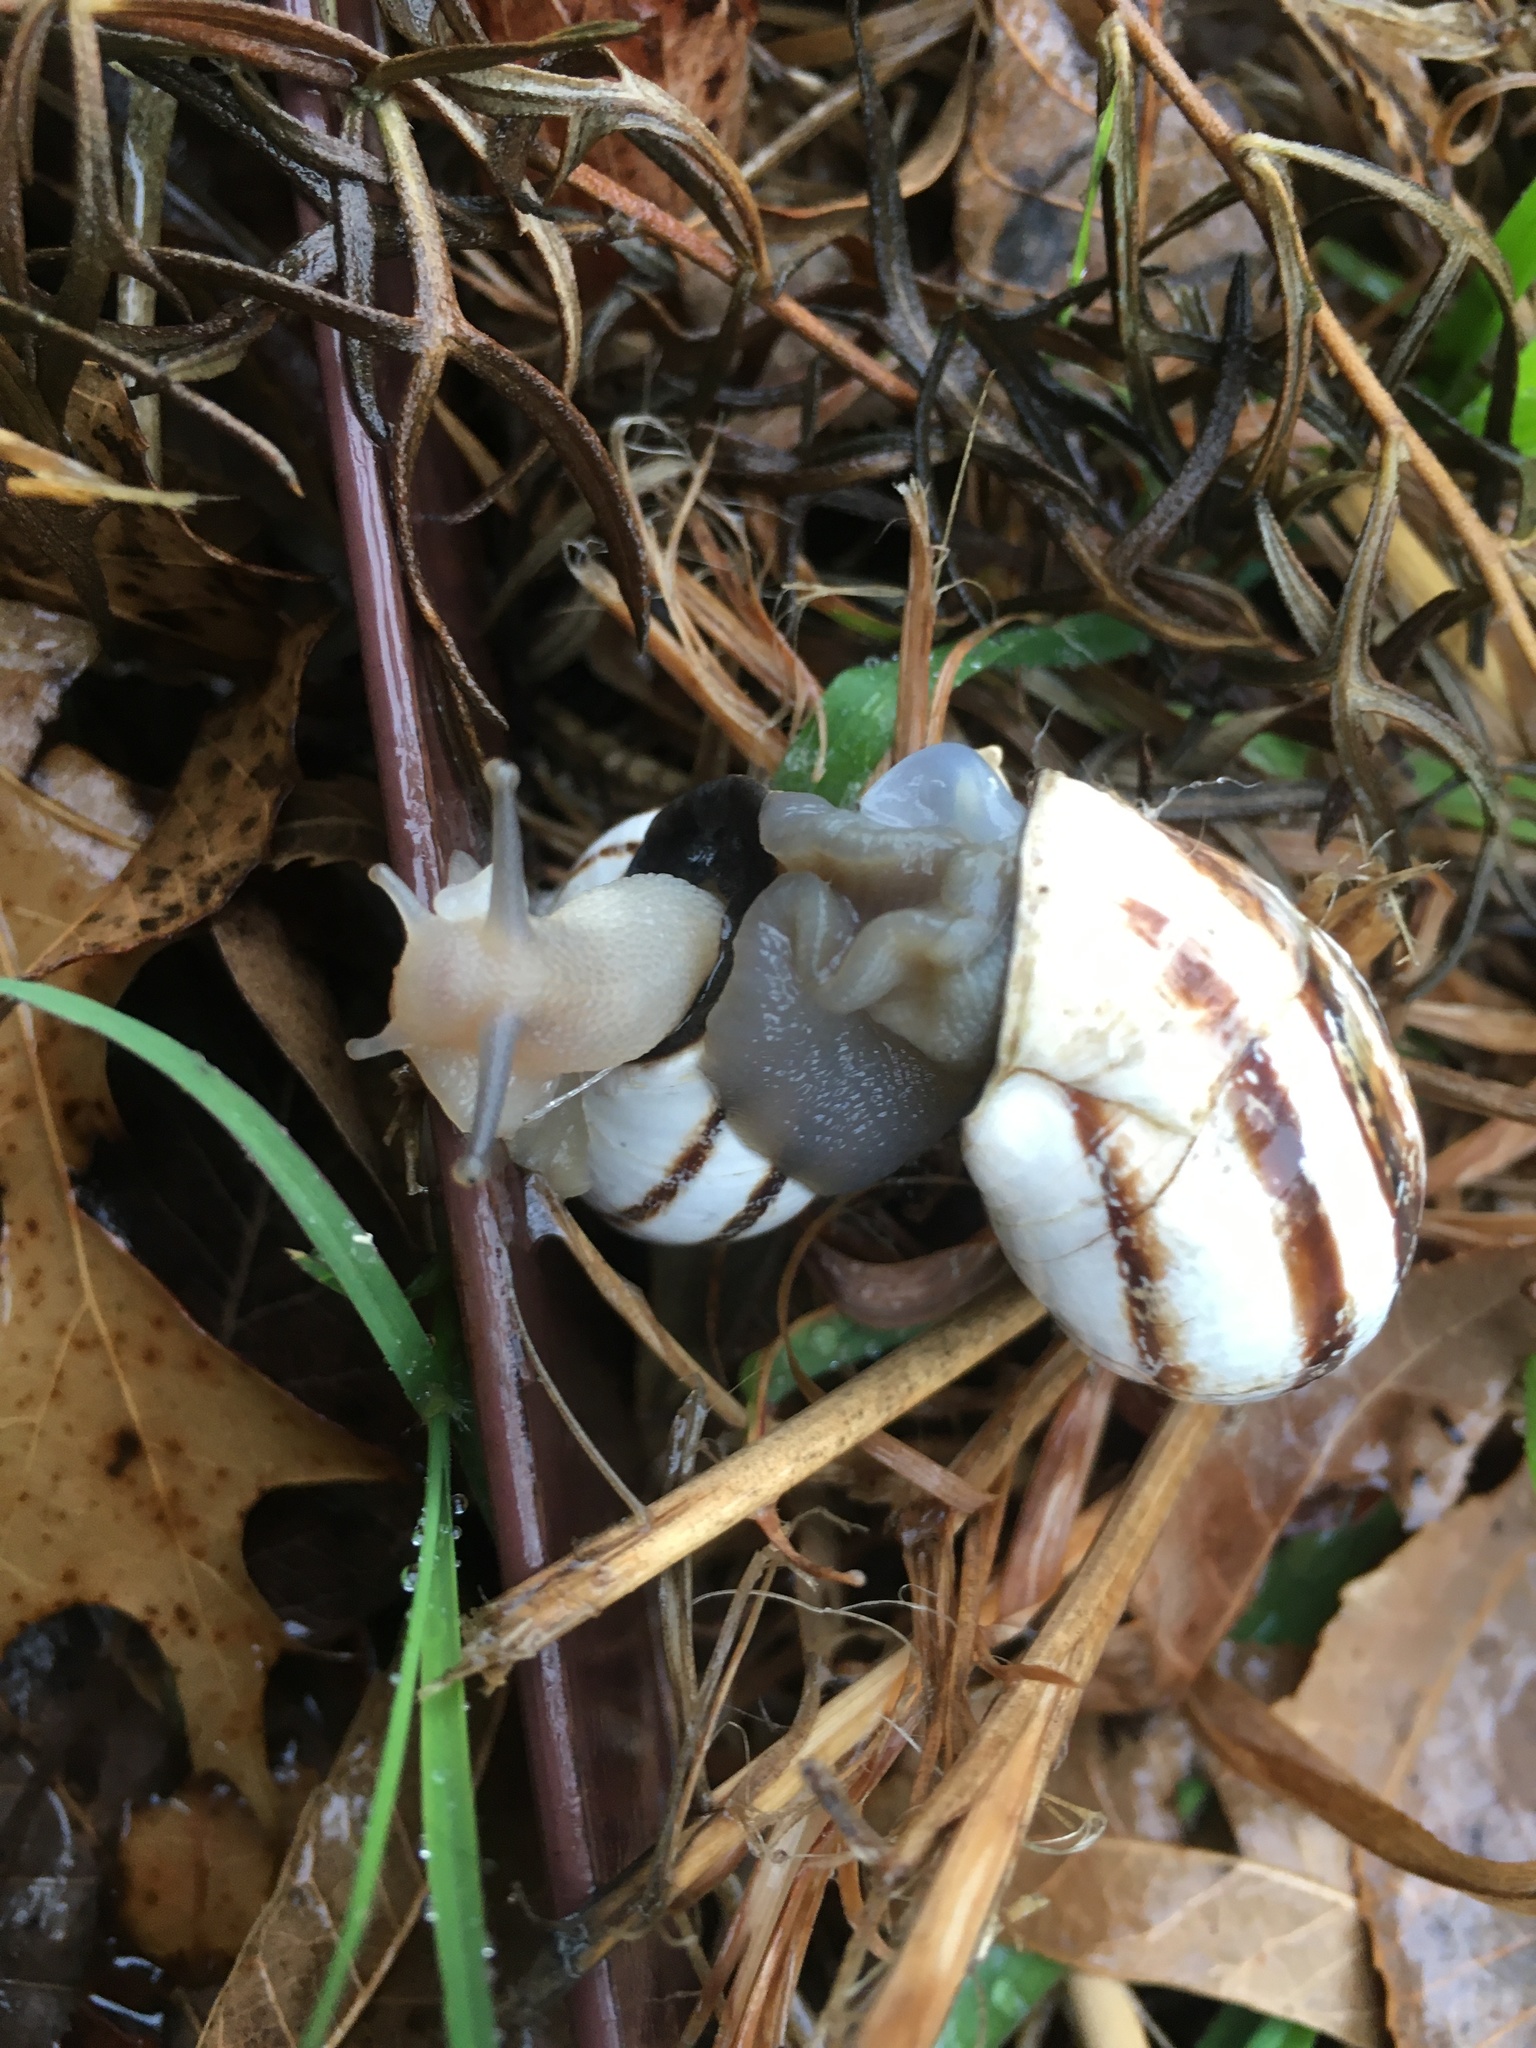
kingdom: Animalia
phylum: Mollusca
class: Gastropoda
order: Stylommatophora
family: Helicidae
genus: Otala
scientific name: Otala lactea
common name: Milk snail
